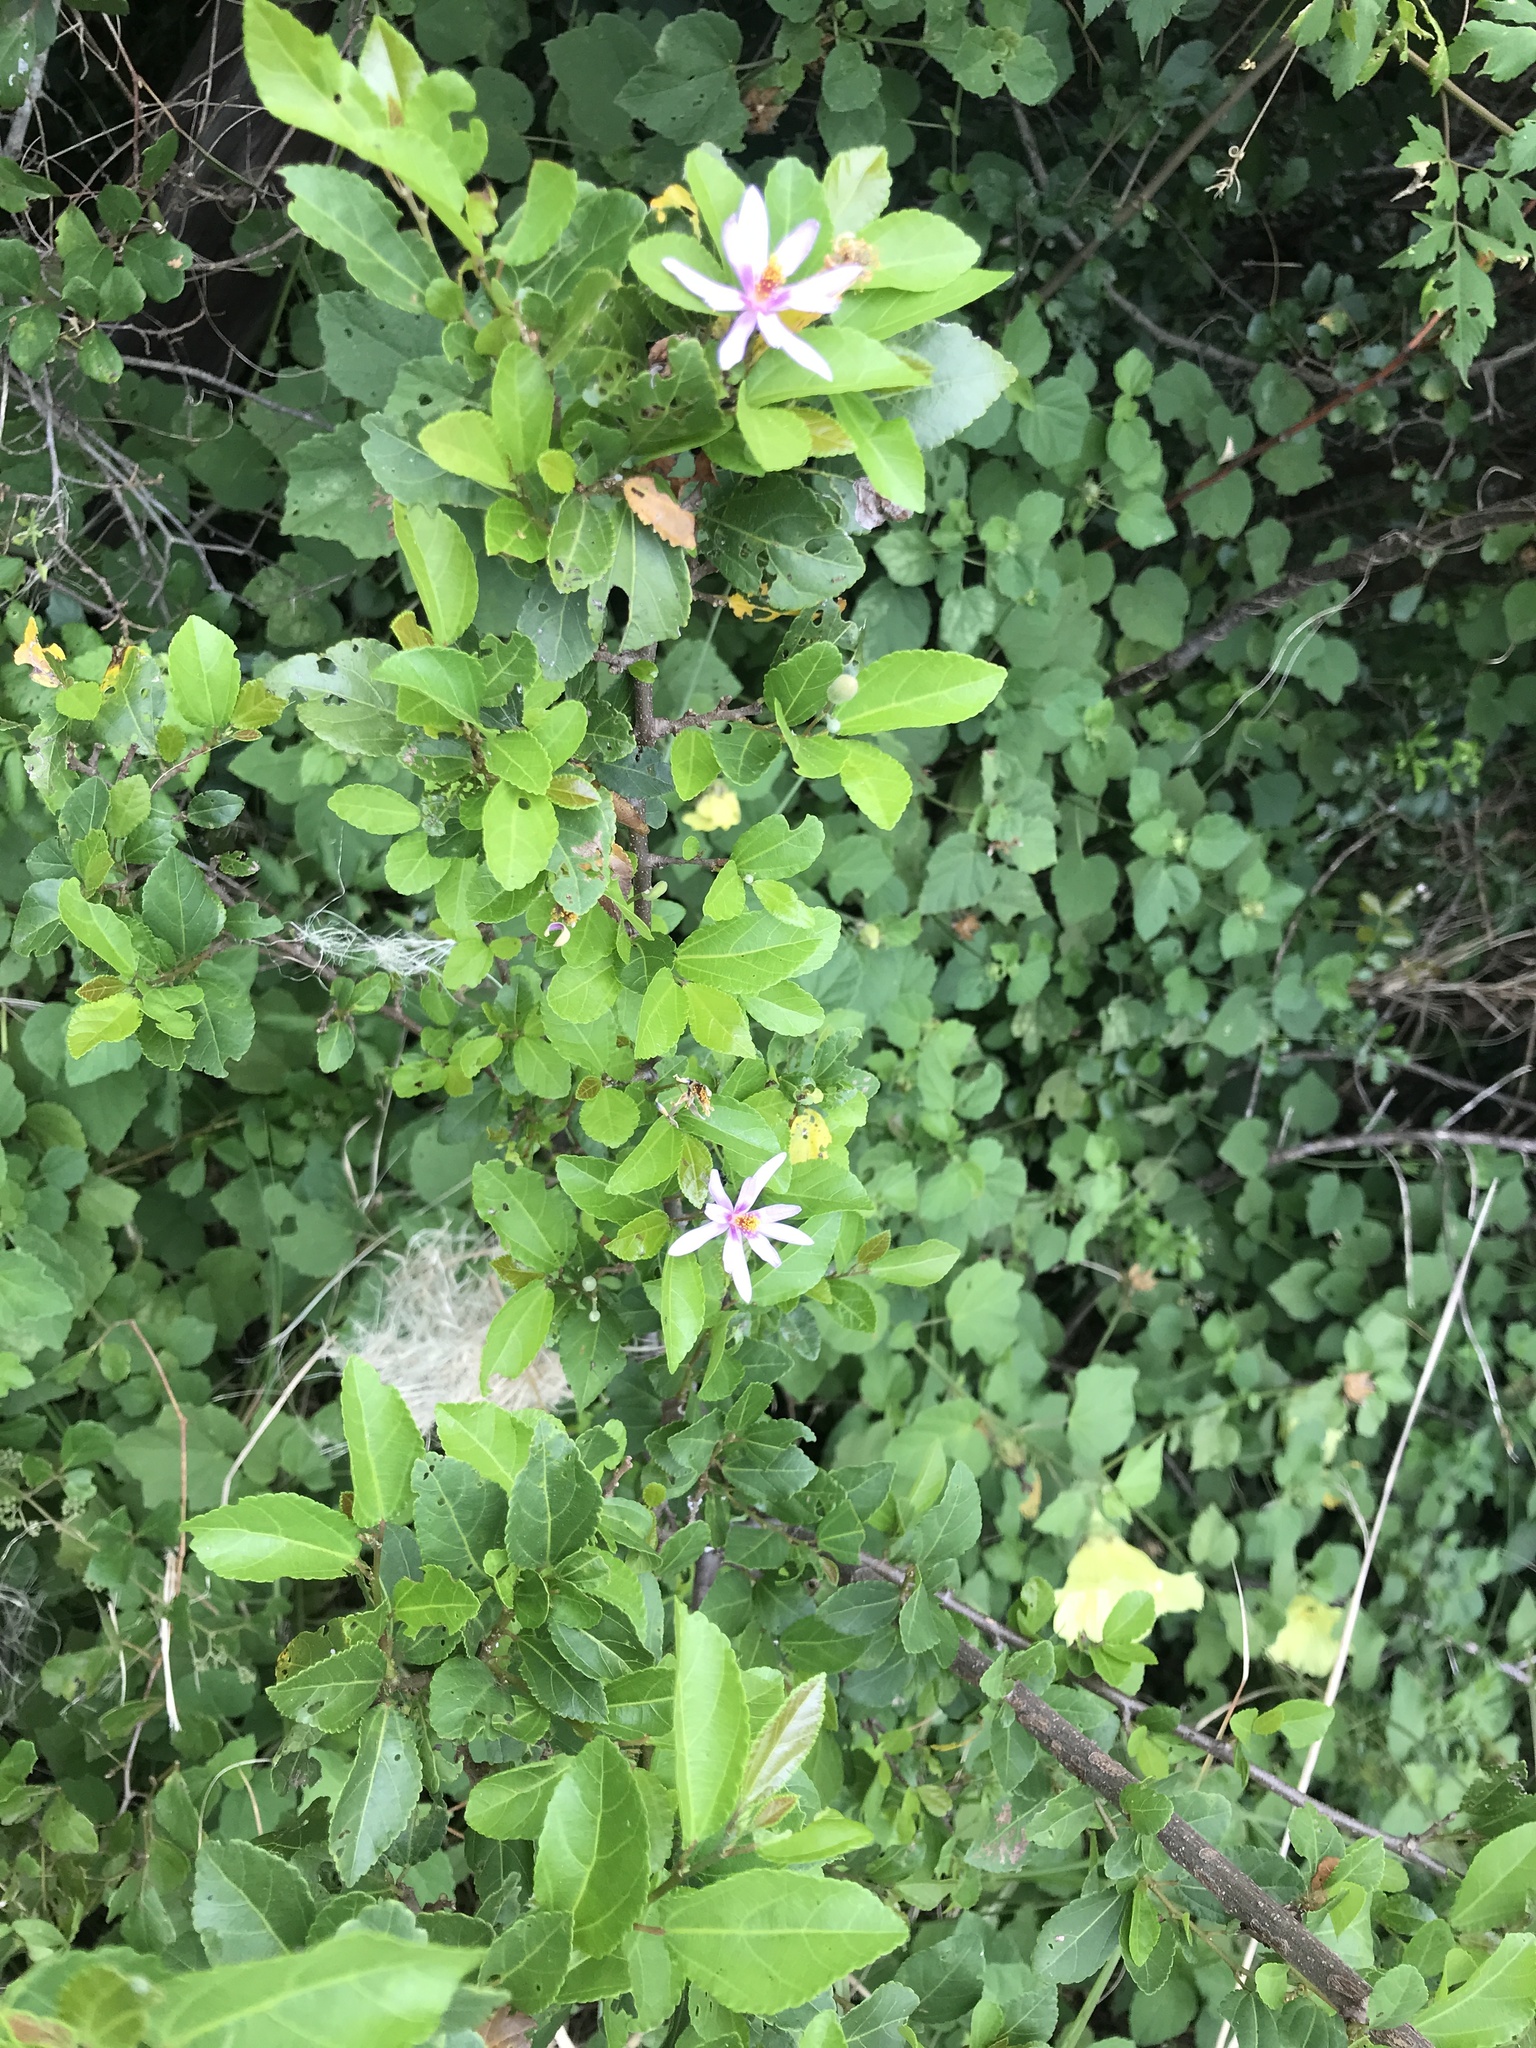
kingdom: Plantae
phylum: Tracheophyta
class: Magnoliopsida
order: Malvales
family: Malvaceae
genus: Grewia
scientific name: Grewia occidentalis
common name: Crossberry
